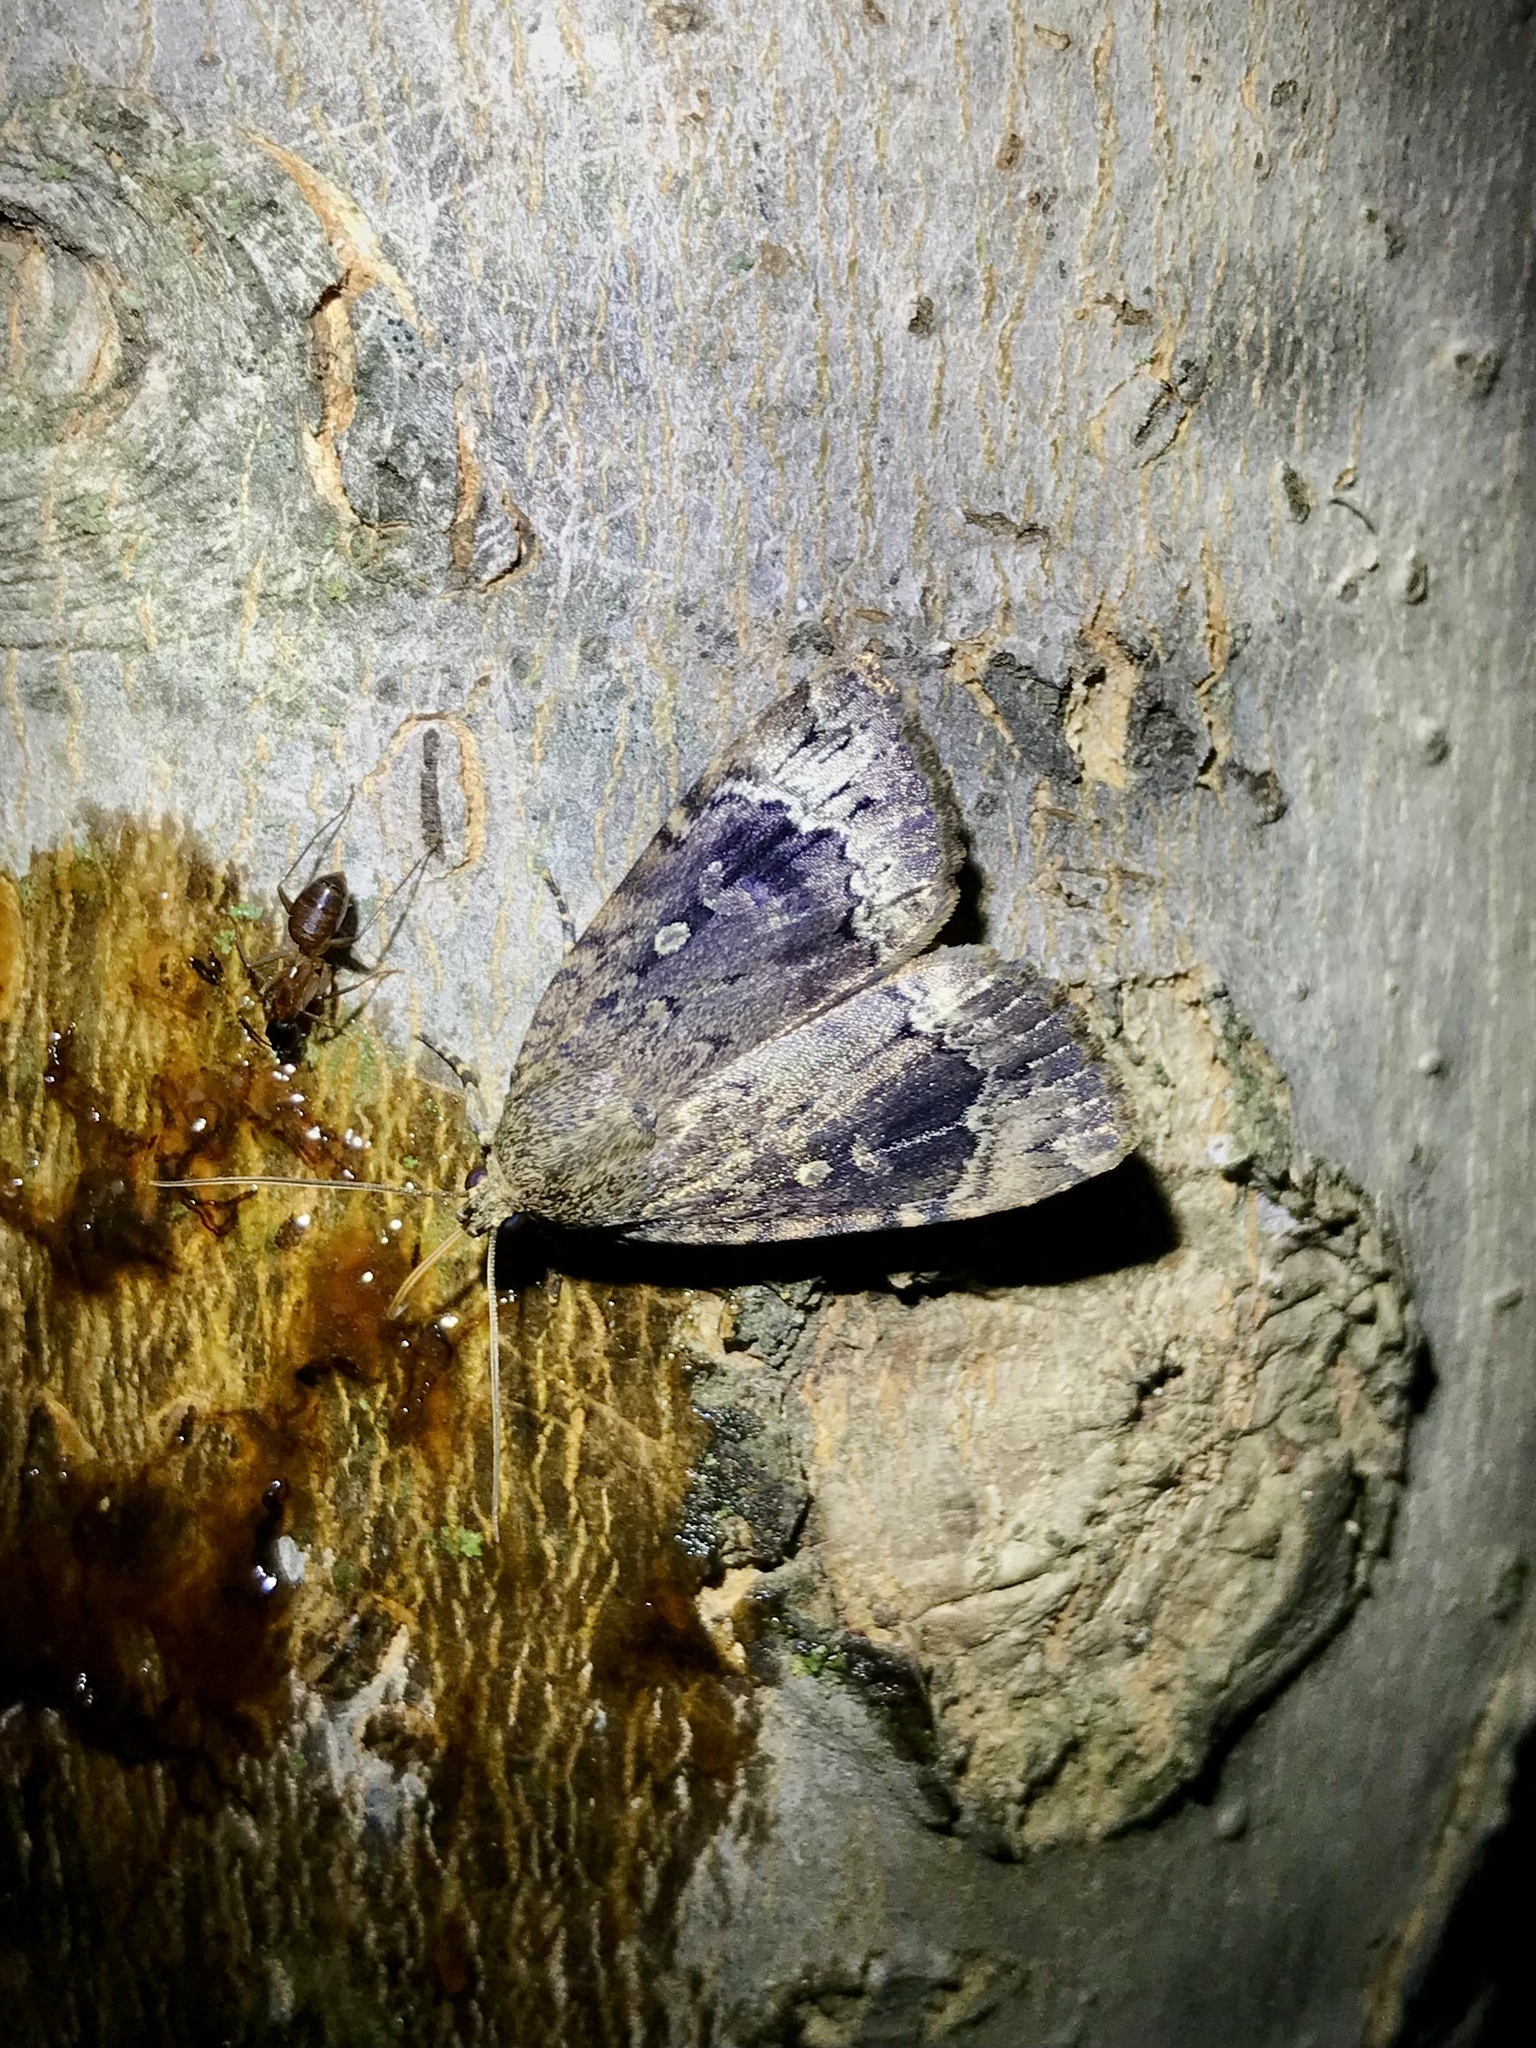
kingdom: Animalia
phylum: Arthropoda
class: Insecta
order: Lepidoptera
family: Noctuidae
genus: Amphipyra
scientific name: Amphipyra pyramidoides
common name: American copper underwing
